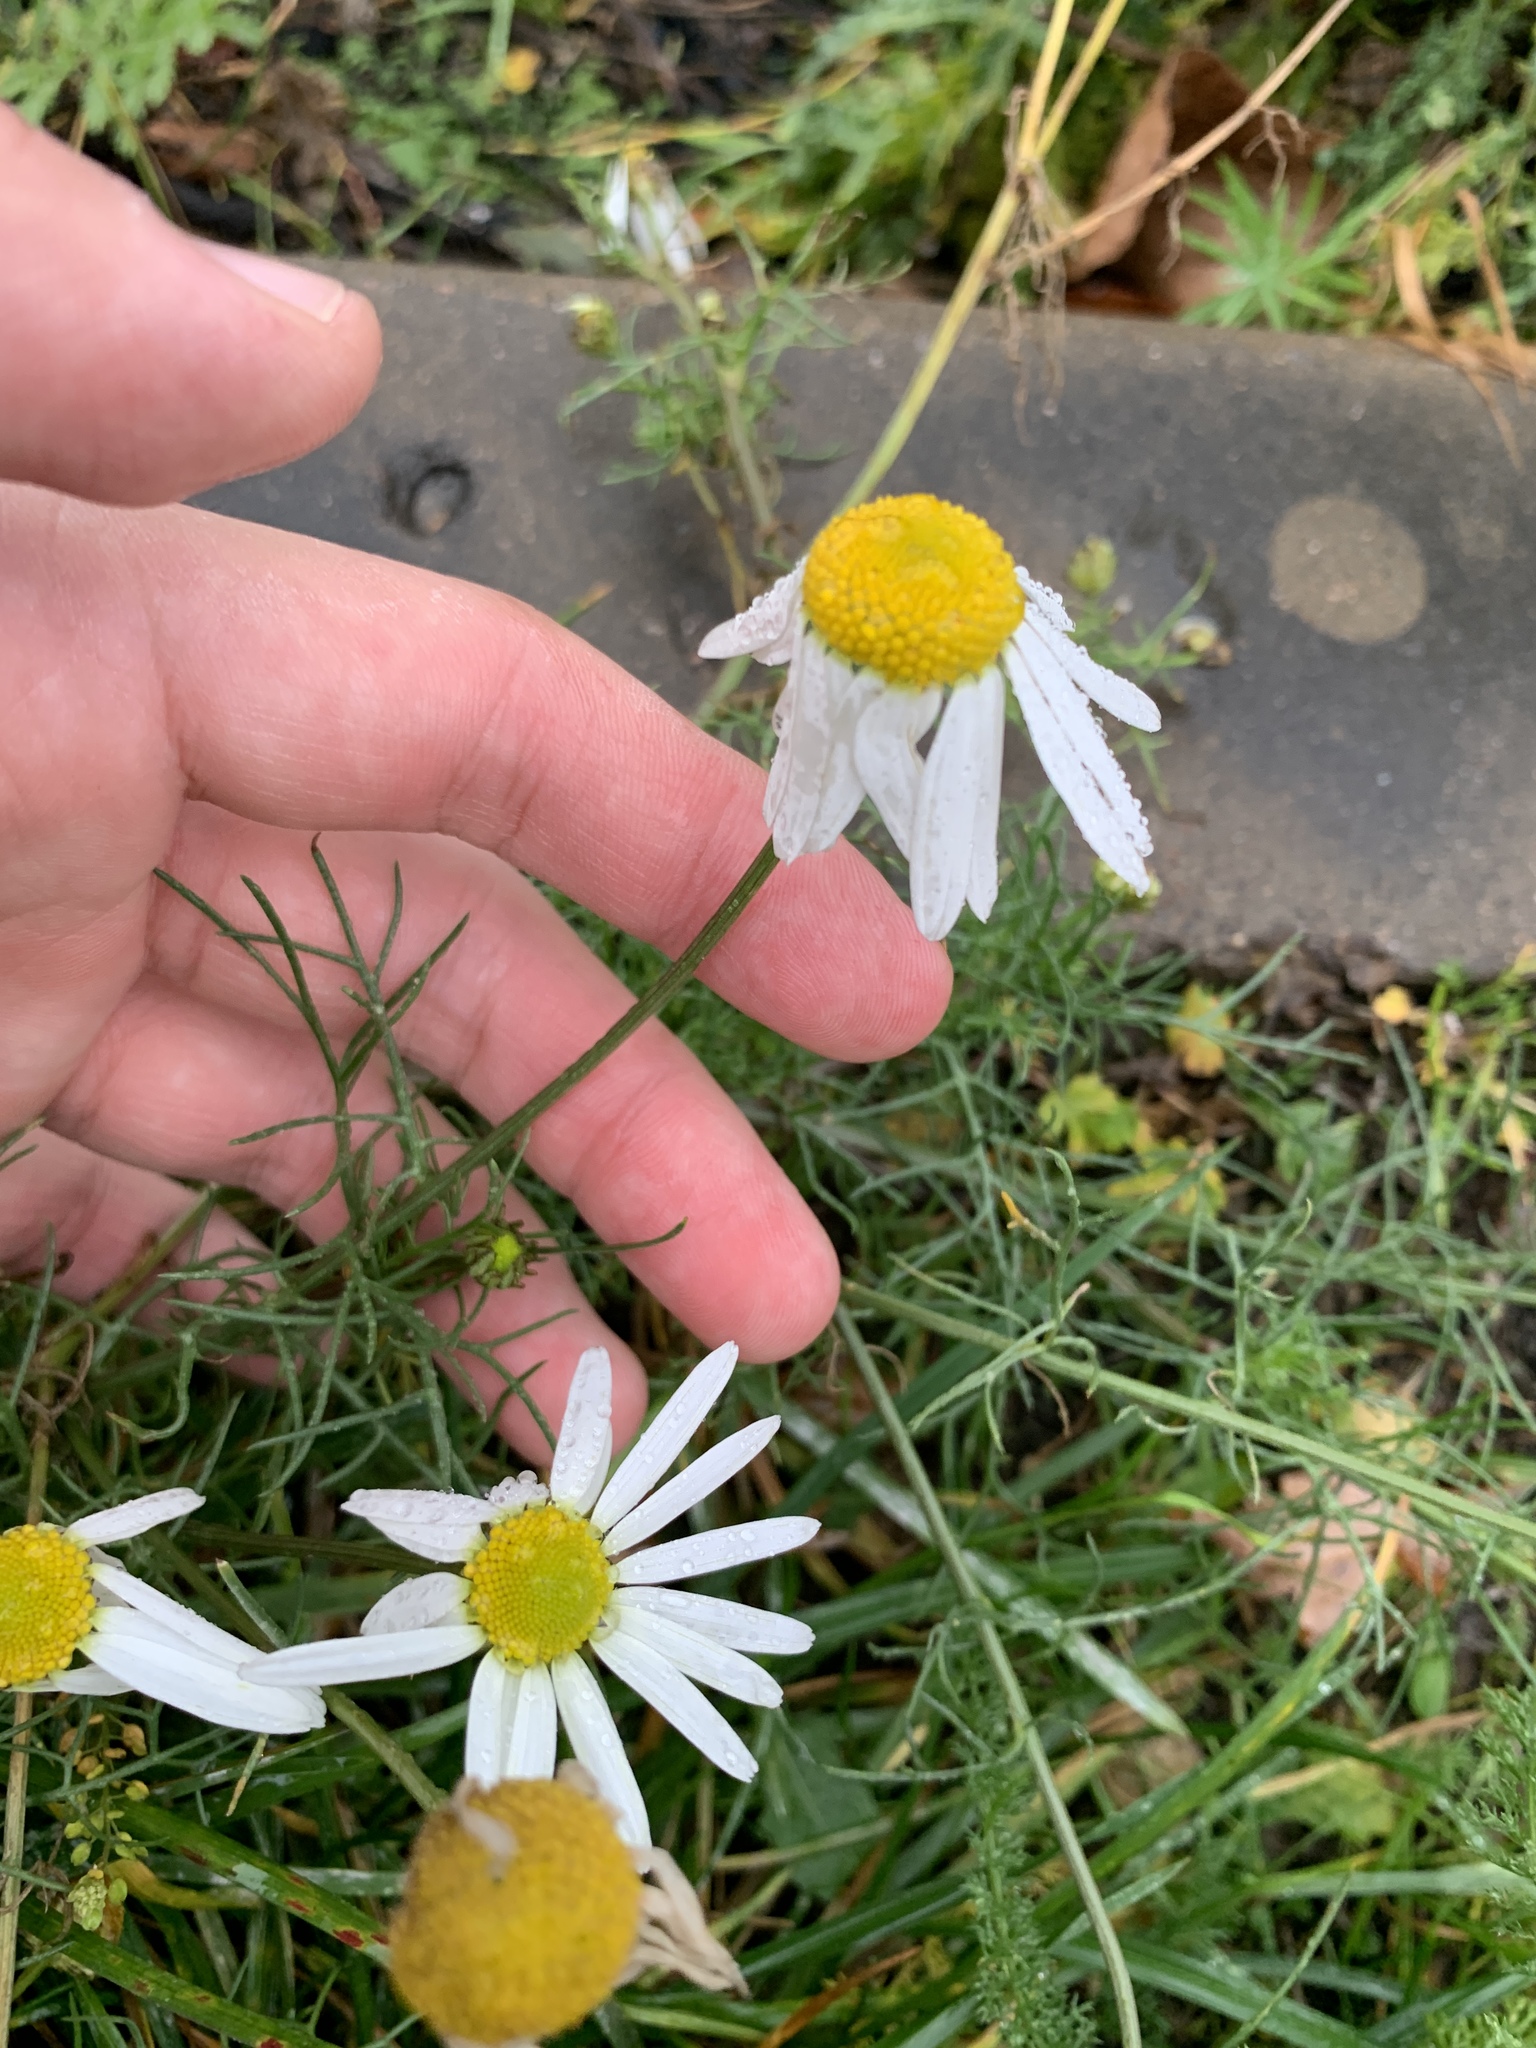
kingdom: Plantae
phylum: Tracheophyta
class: Magnoliopsida
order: Asterales
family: Asteraceae
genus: Tripleurospermum
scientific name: Tripleurospermum inodorum
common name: Scentless mayweed
